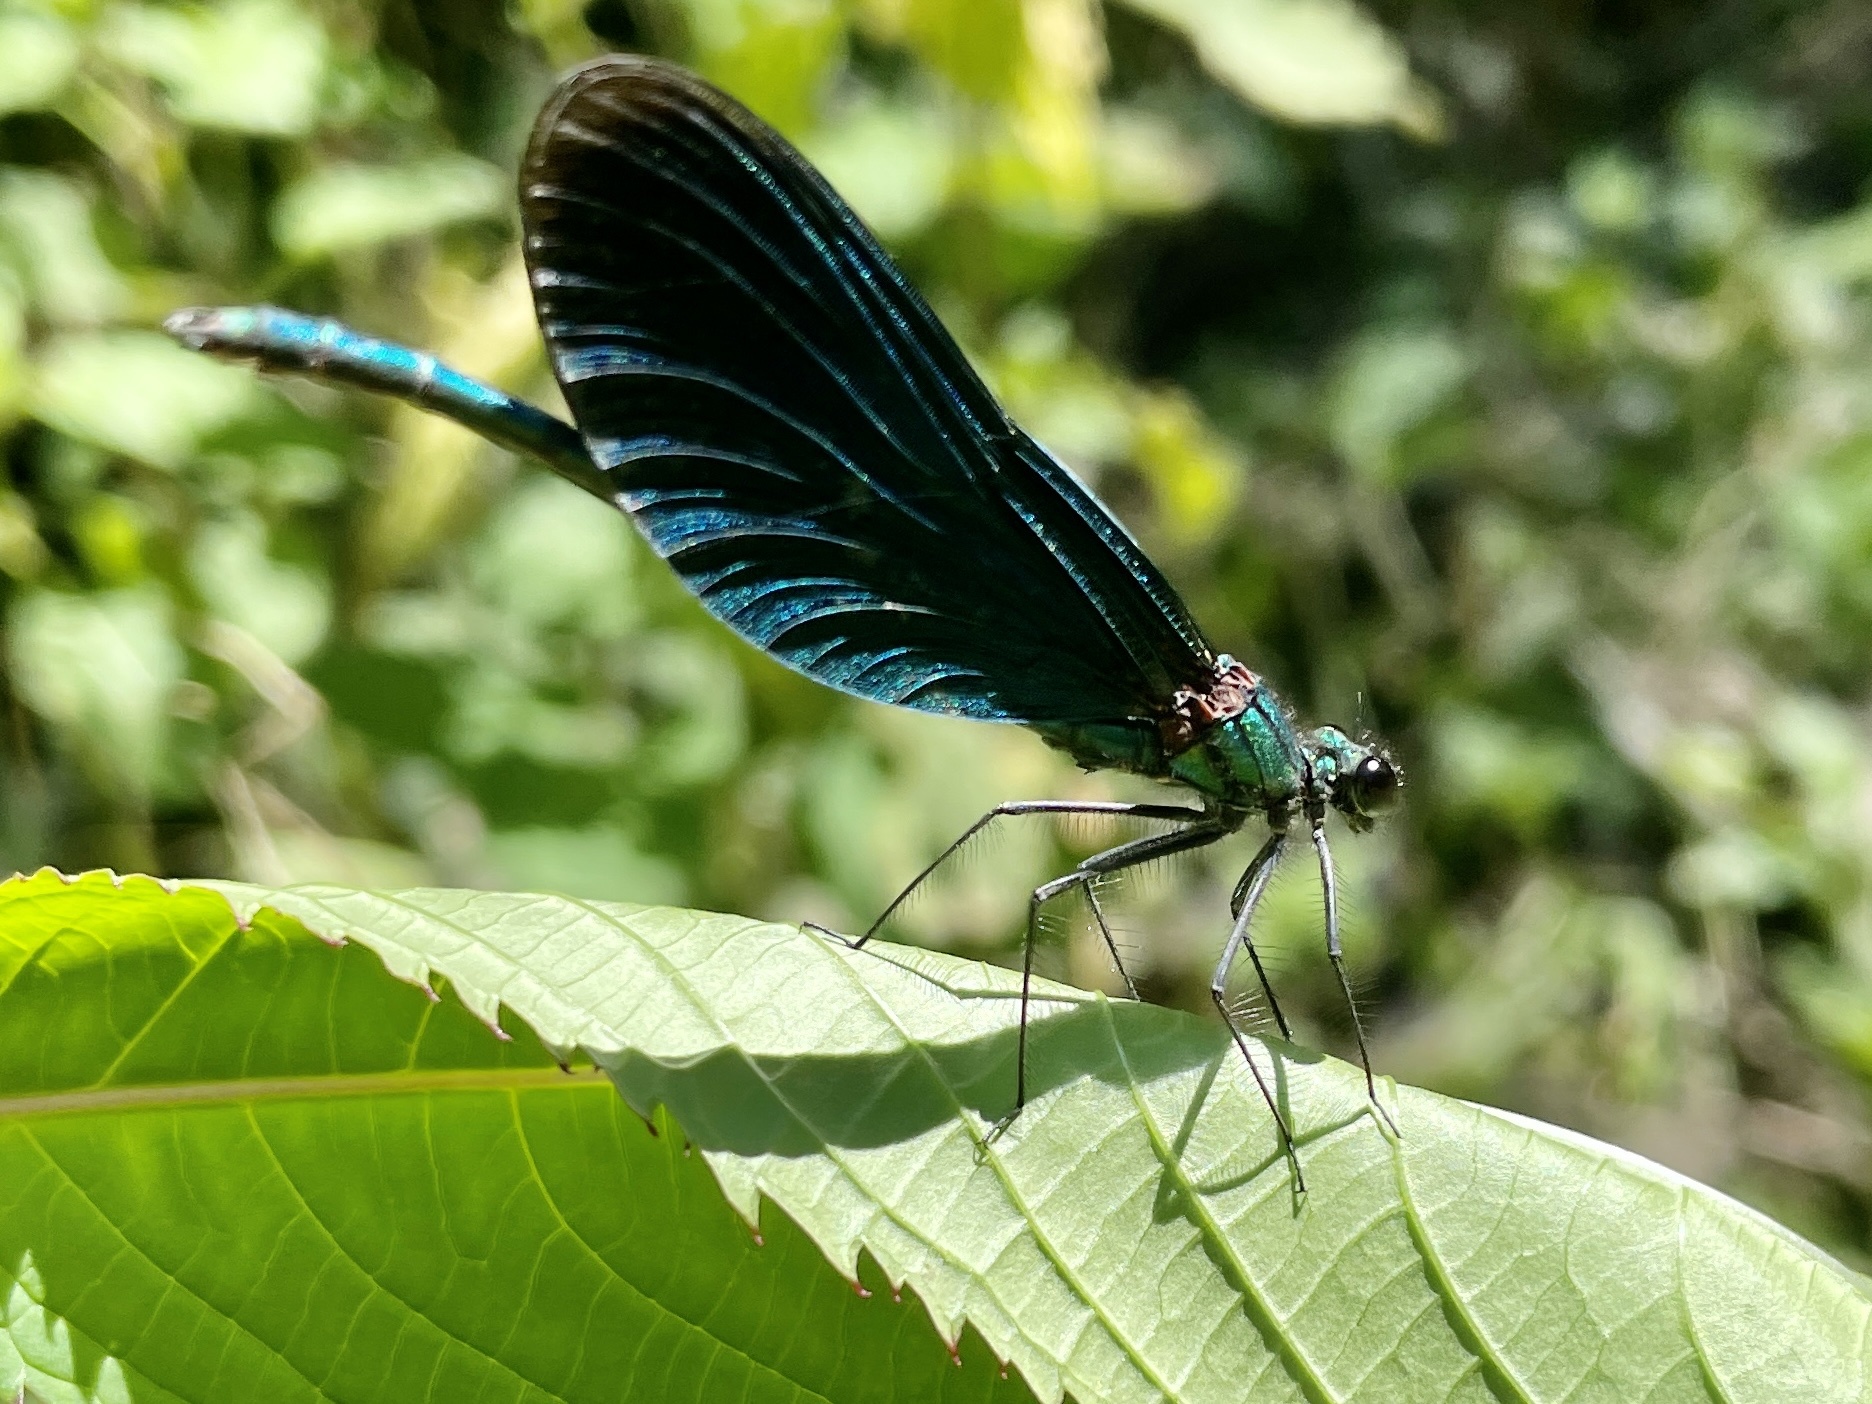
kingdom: Animalia
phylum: Arthropoda
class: Insecta
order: Odonata
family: Calopterygidae
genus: Calopteryx
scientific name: Calopteryx virgo
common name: Beautiful demoiselle
